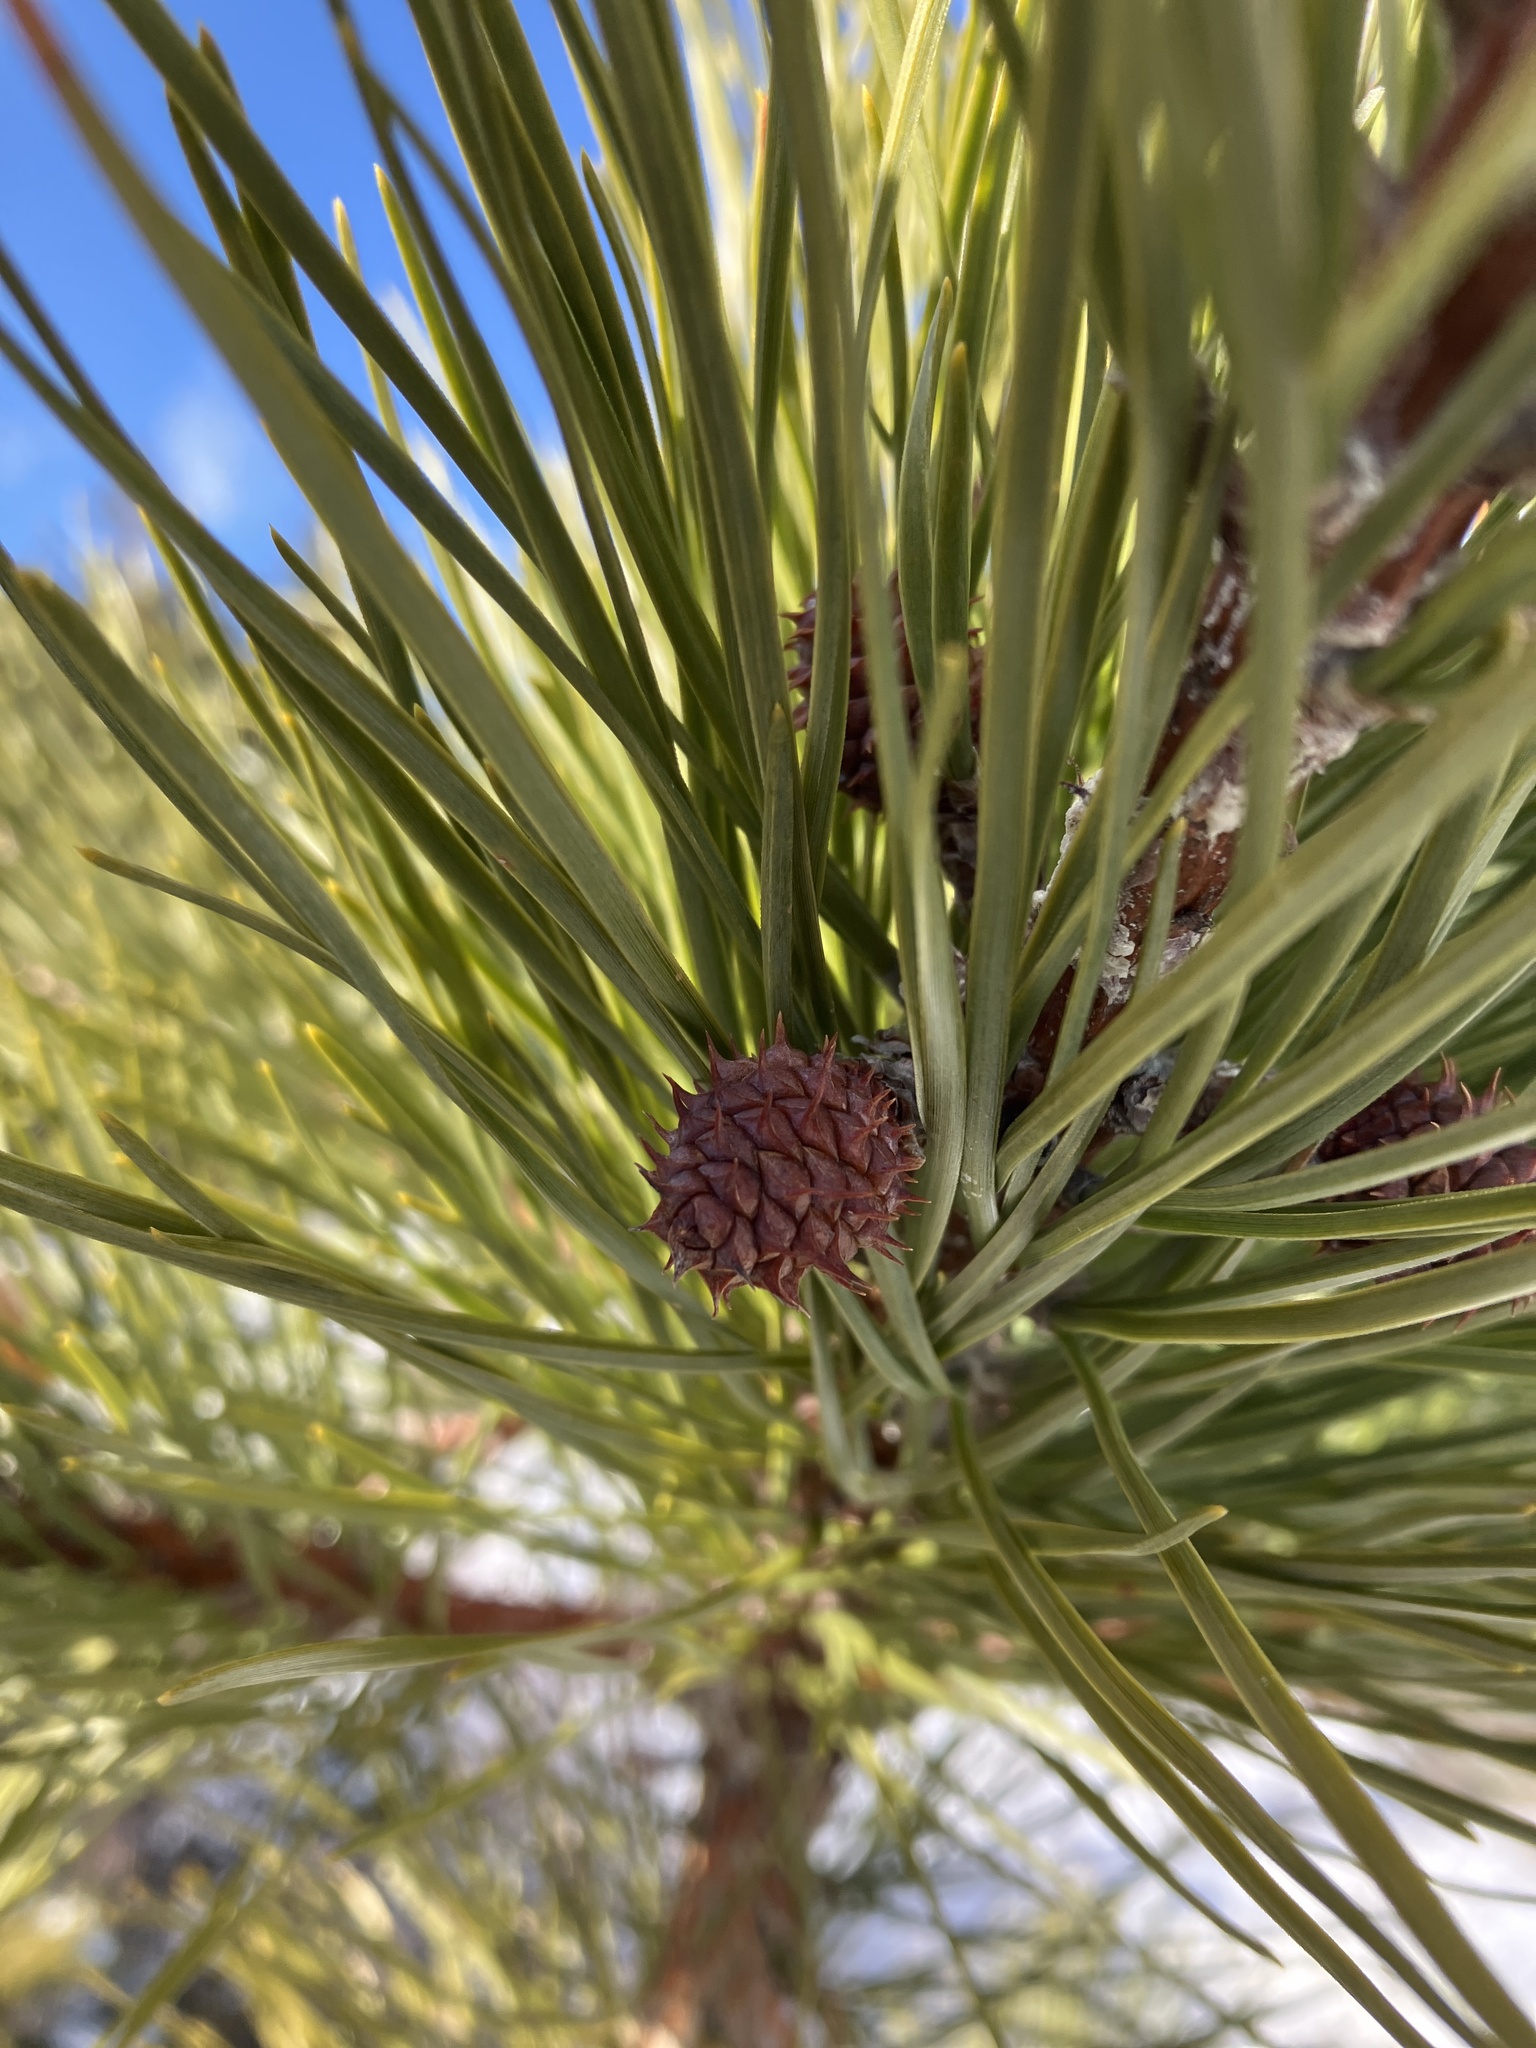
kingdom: Plantae
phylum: Tracheophyta
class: Pinopsida
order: Pinales
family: Pinaceae
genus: Pinus
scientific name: Pinus rigida
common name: Pitch pine
